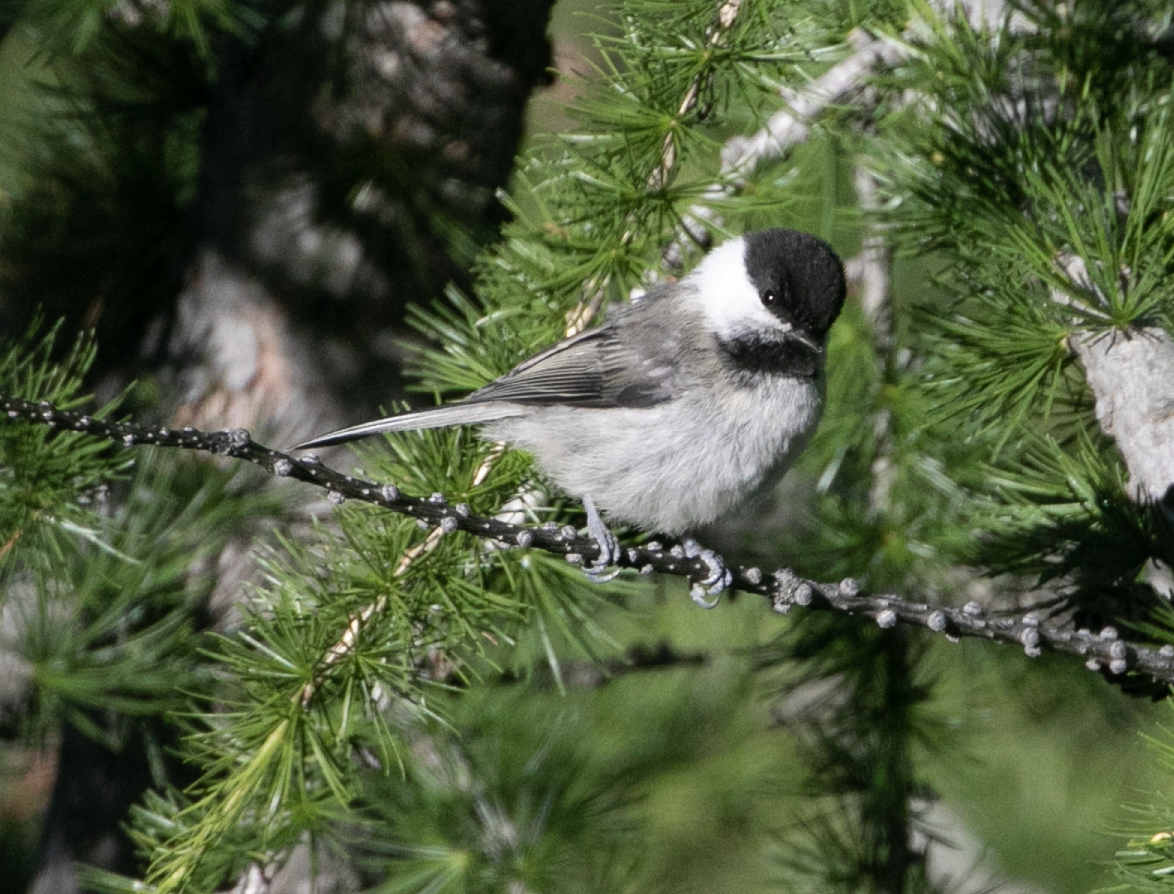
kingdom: Animalia
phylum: Chordata
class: Aves
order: Passeriformes
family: Paridae
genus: Poecile
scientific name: Poecile montanus
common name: Willow tit
